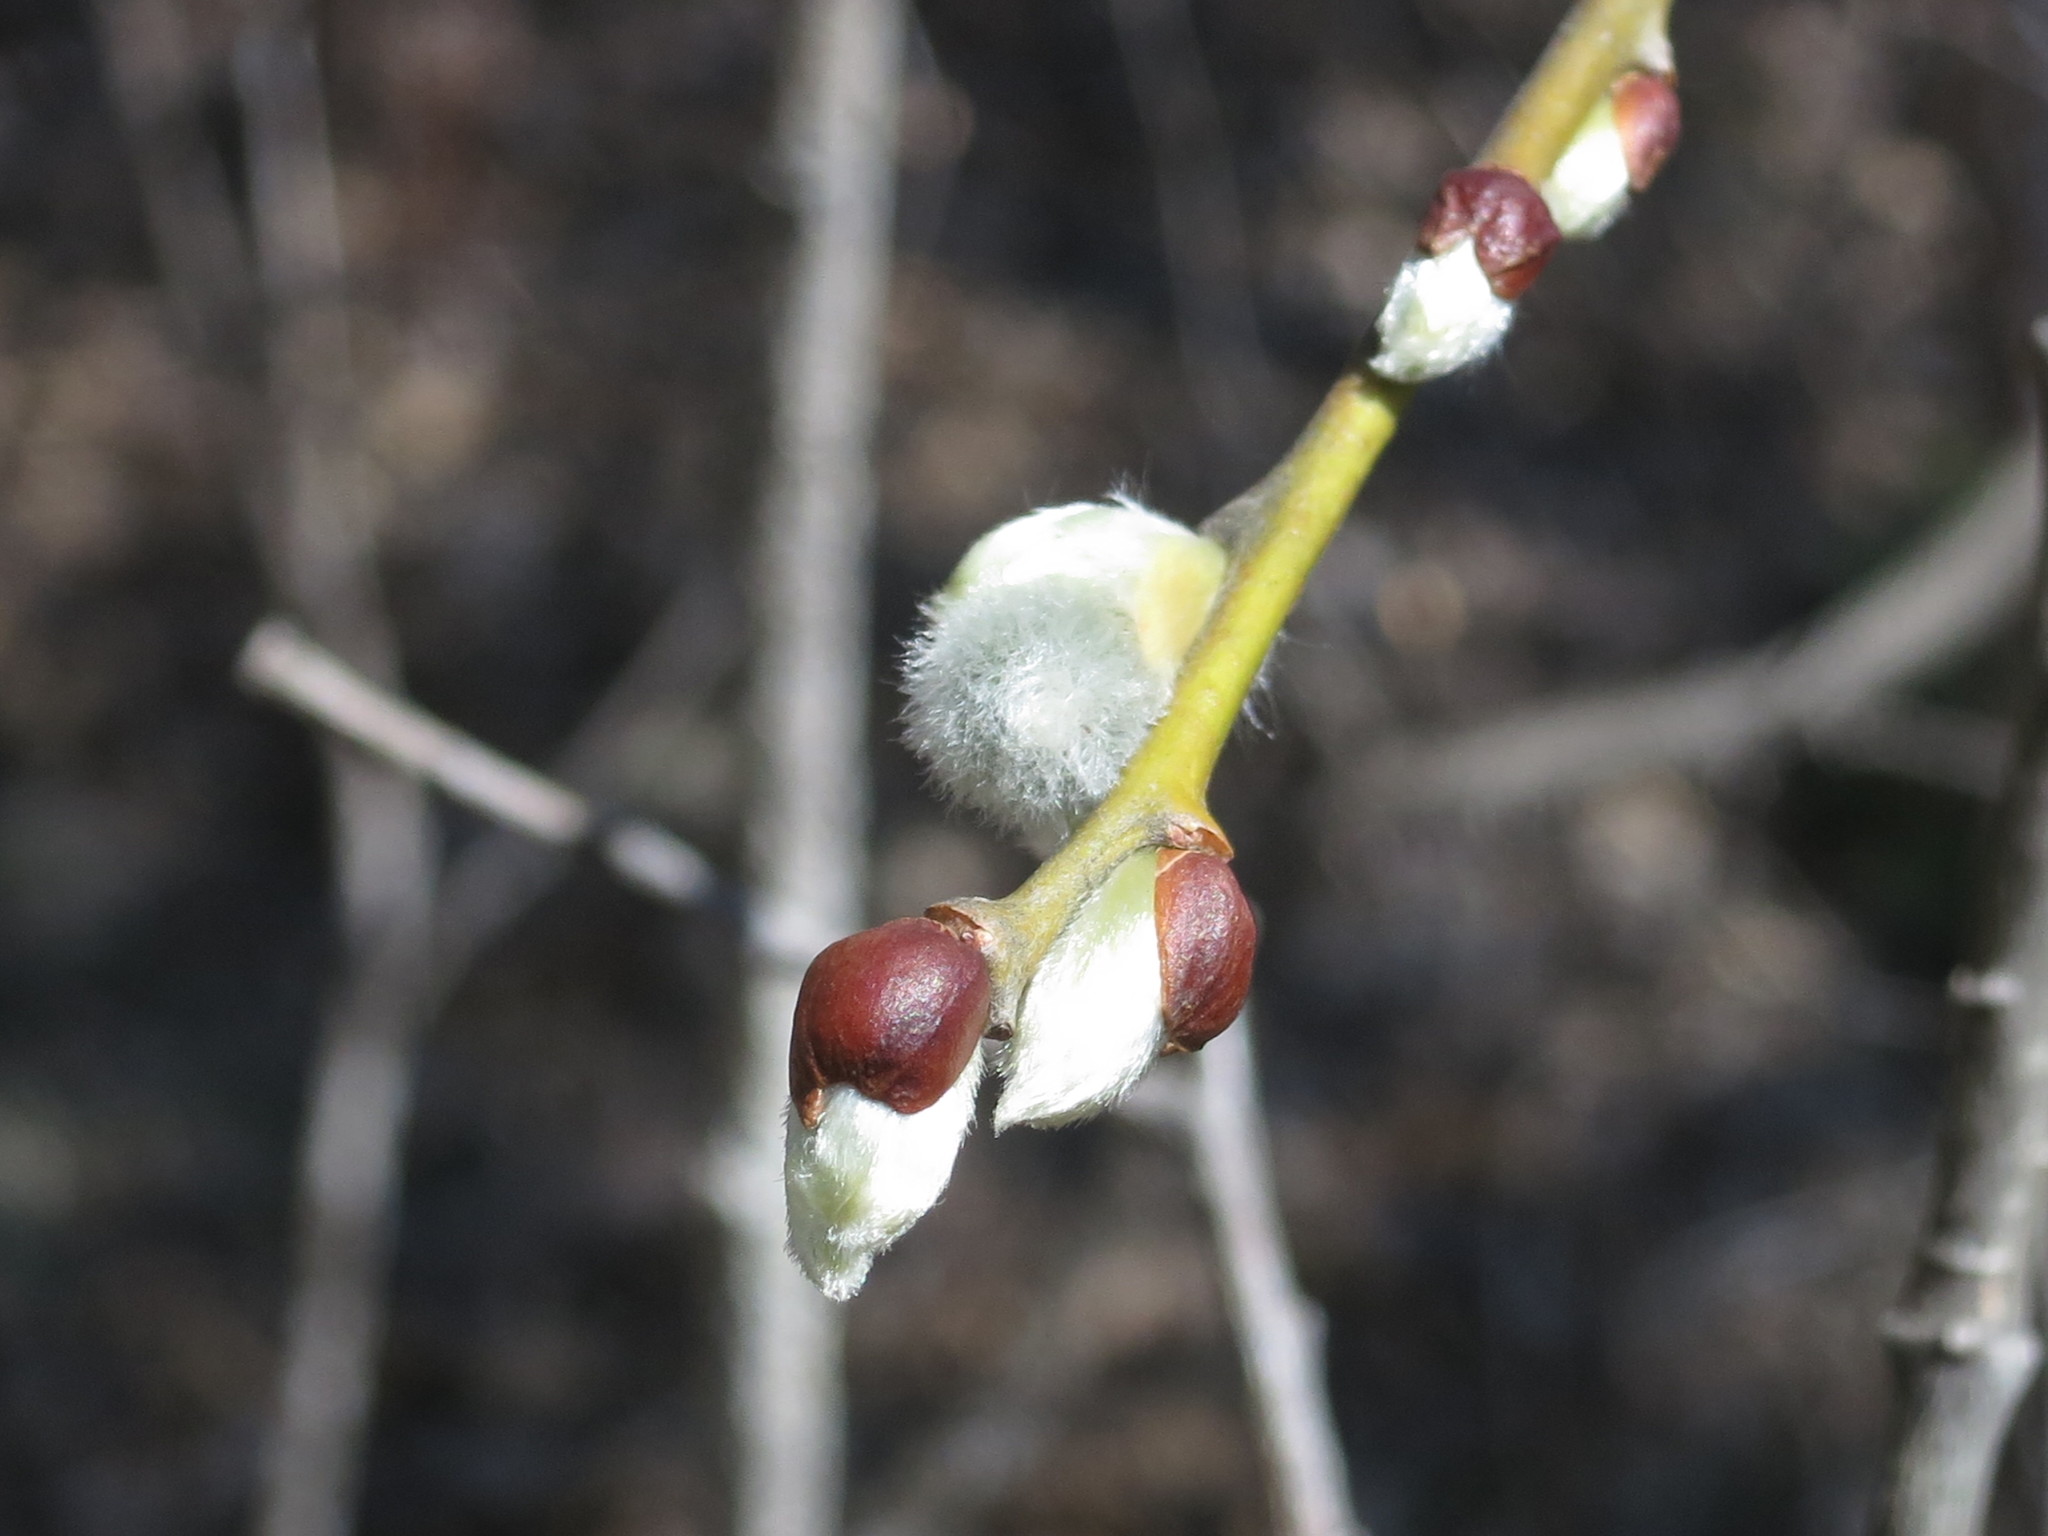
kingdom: Plantae
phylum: Tracheophyta
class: Magnoliopsida
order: Malpighiales
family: Salicaceae
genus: Salix
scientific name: Salix caprea
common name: Goat willow
